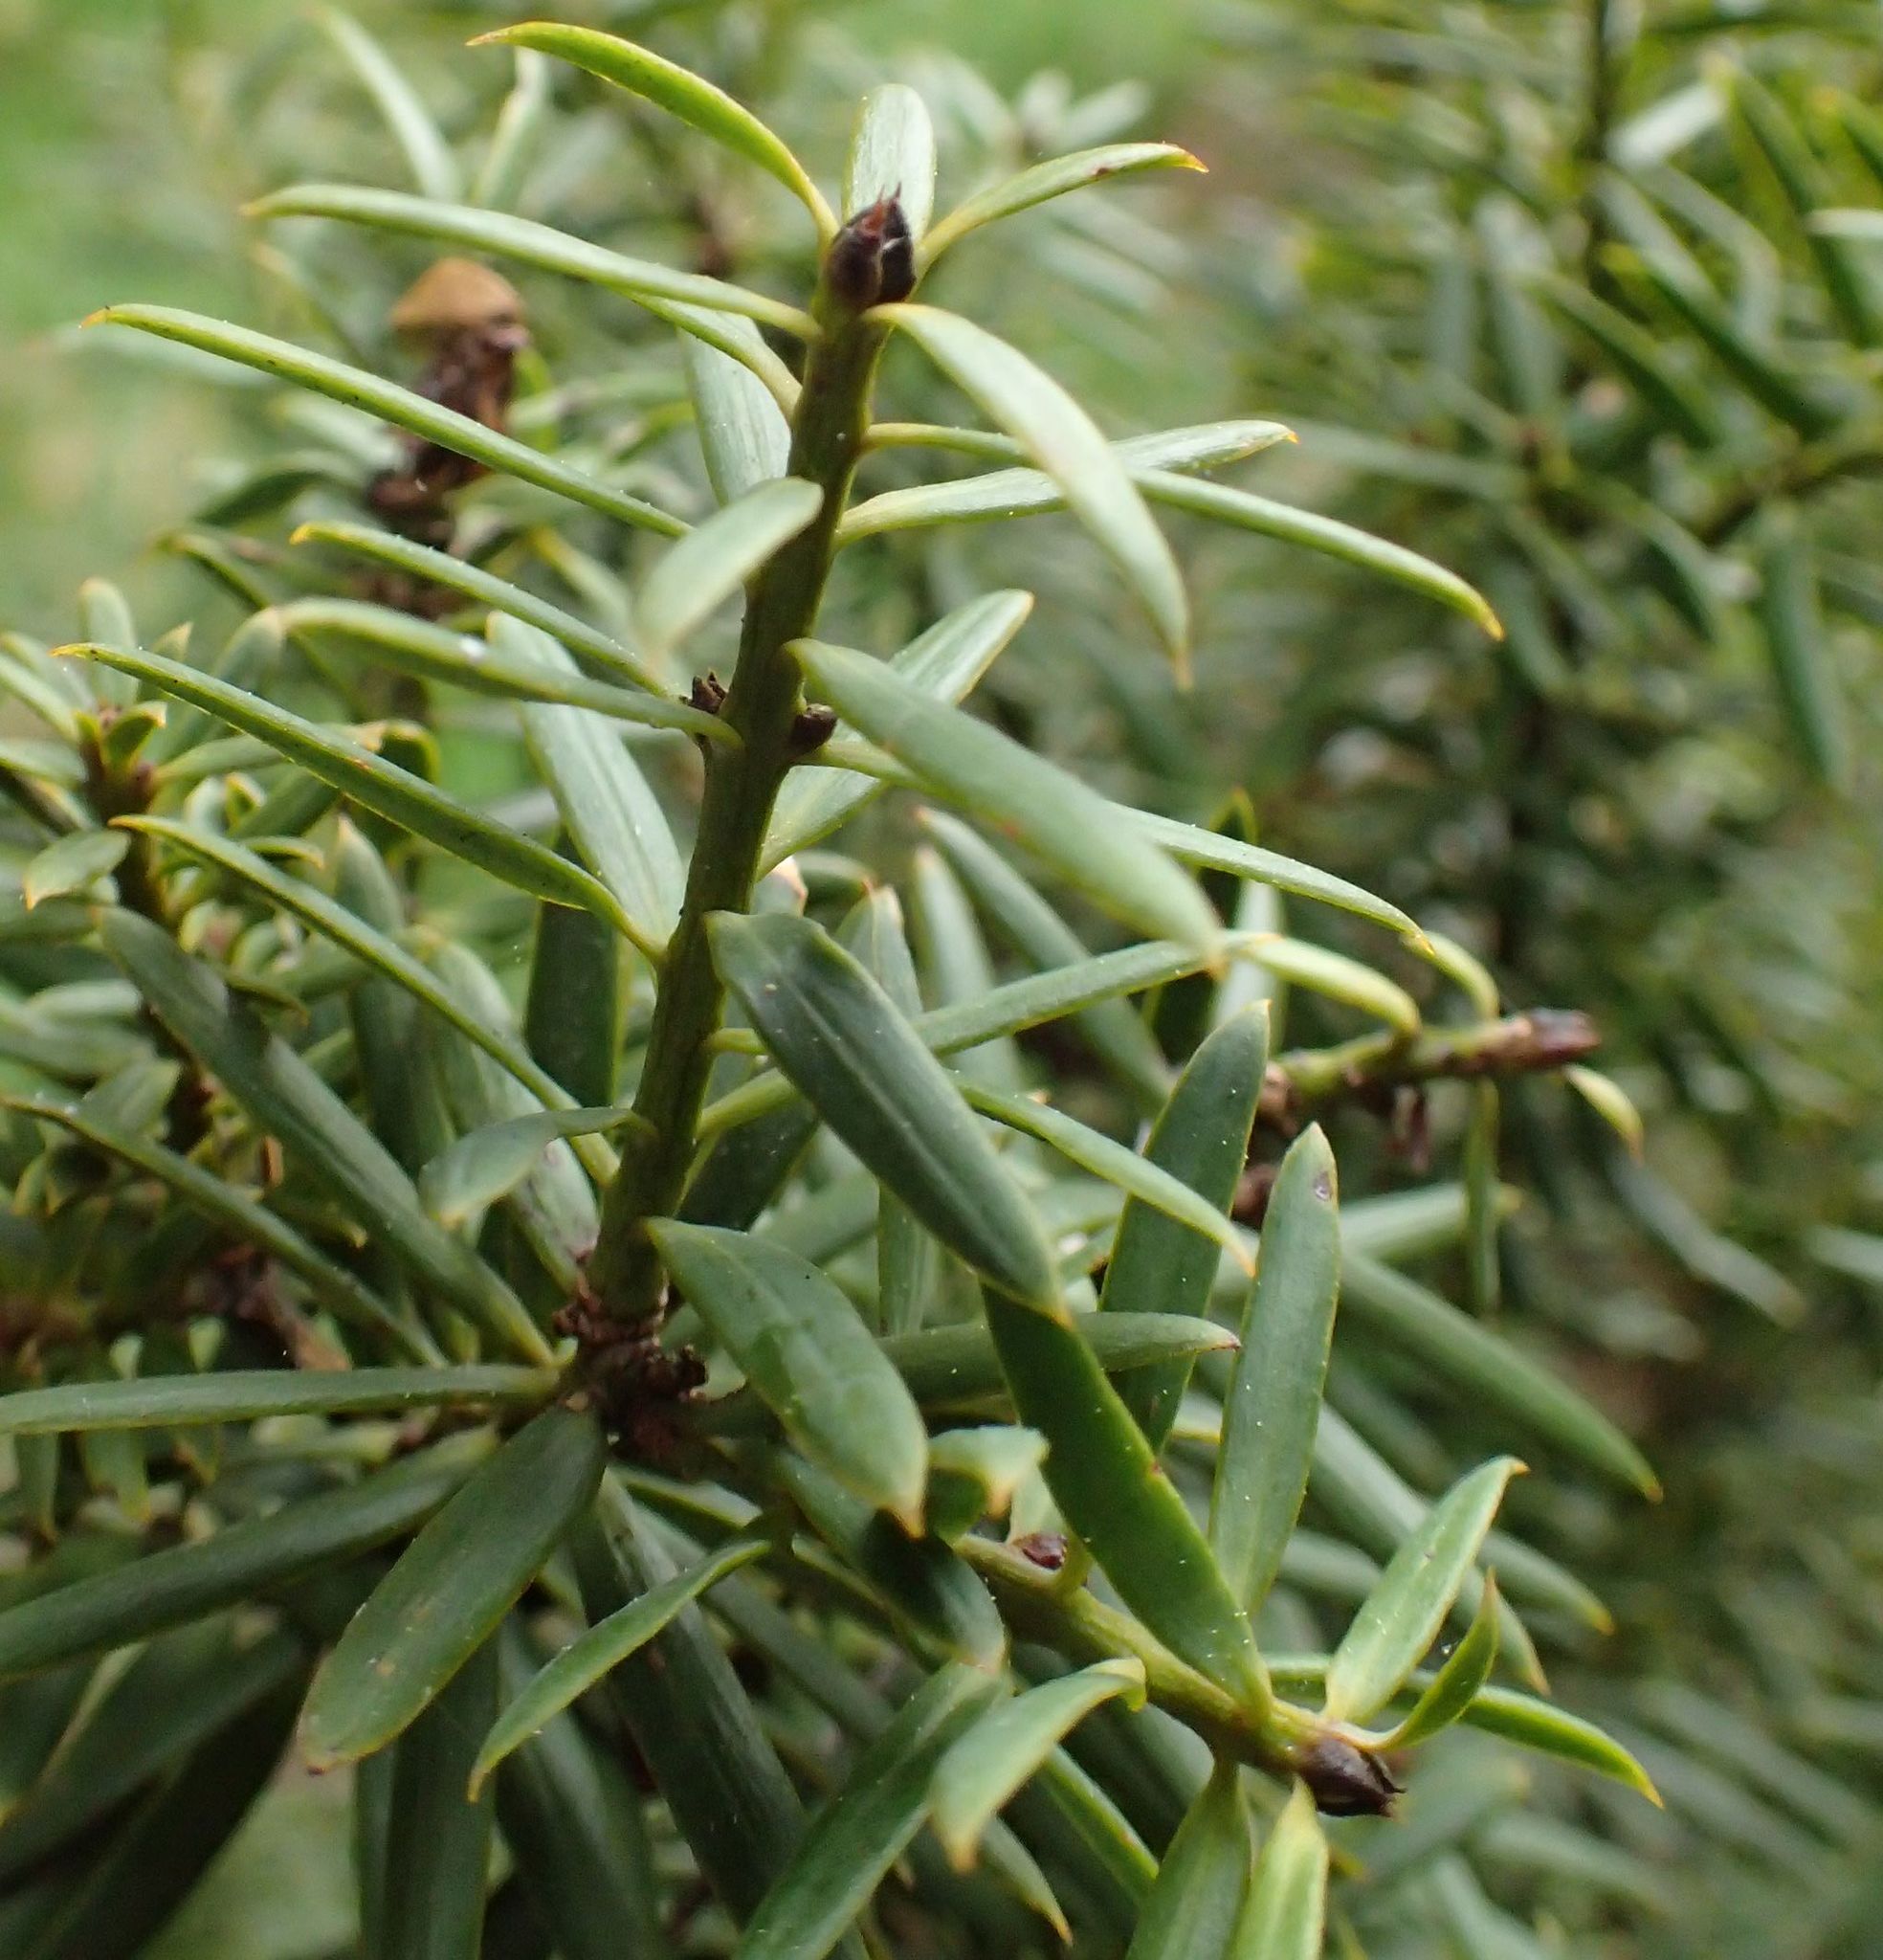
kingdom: Plantae
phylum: Tracheophyta
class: Pinopsida
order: Pinales
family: Podocarpaceae
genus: Podocarpus
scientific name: Podocarpus totara
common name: Totara
